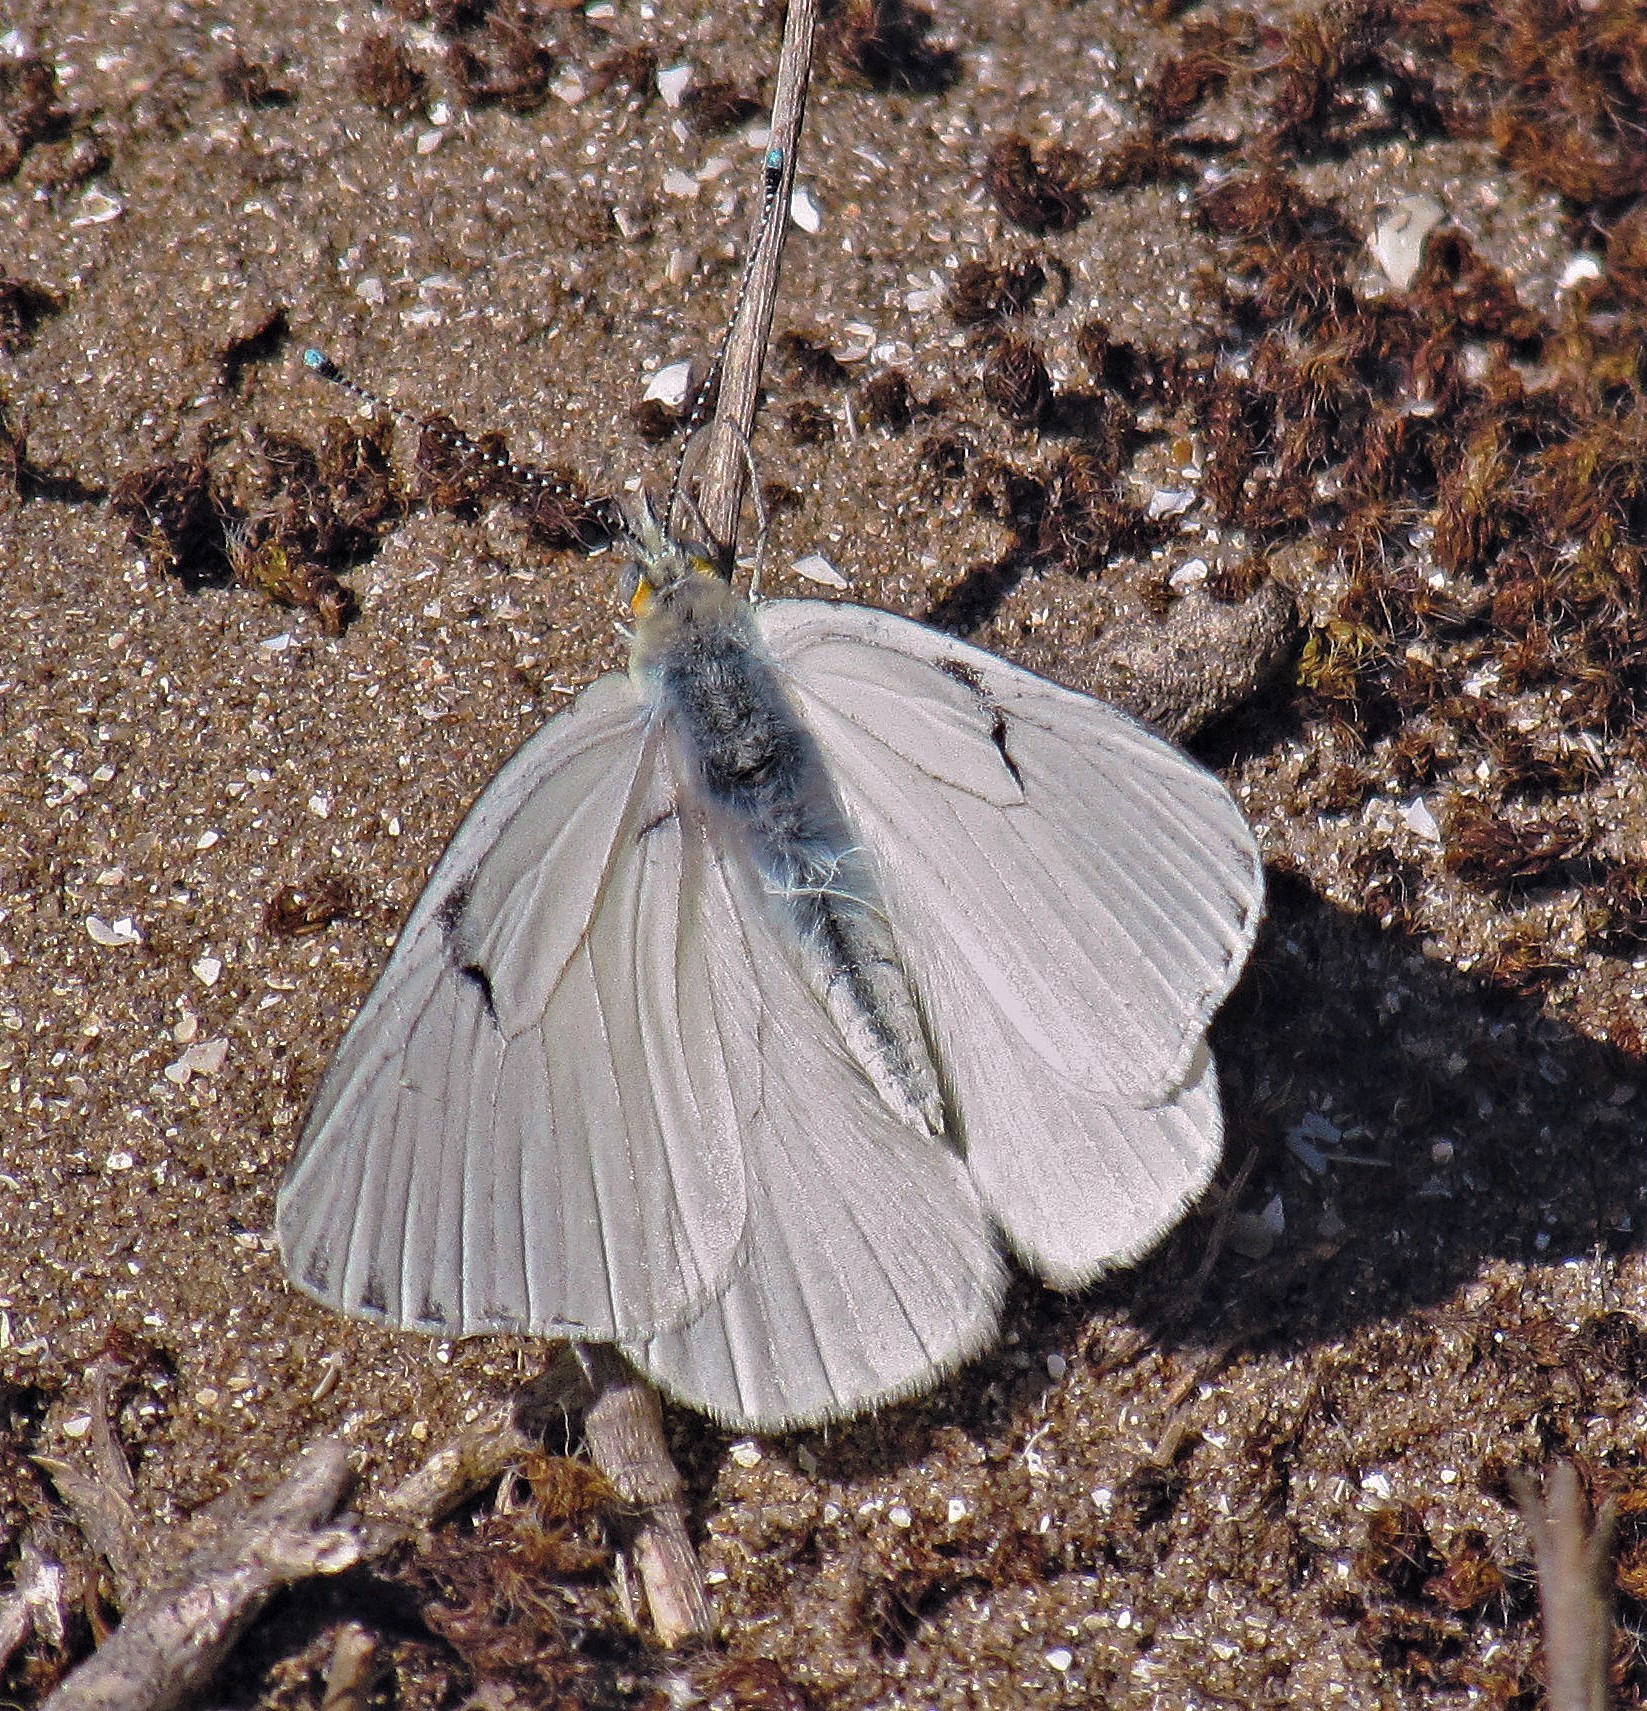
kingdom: Animalia
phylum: Arthropoda
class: Insecta
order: Lepidoptera
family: Pieridae
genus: Tatochila
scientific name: Tatochila mercedis
